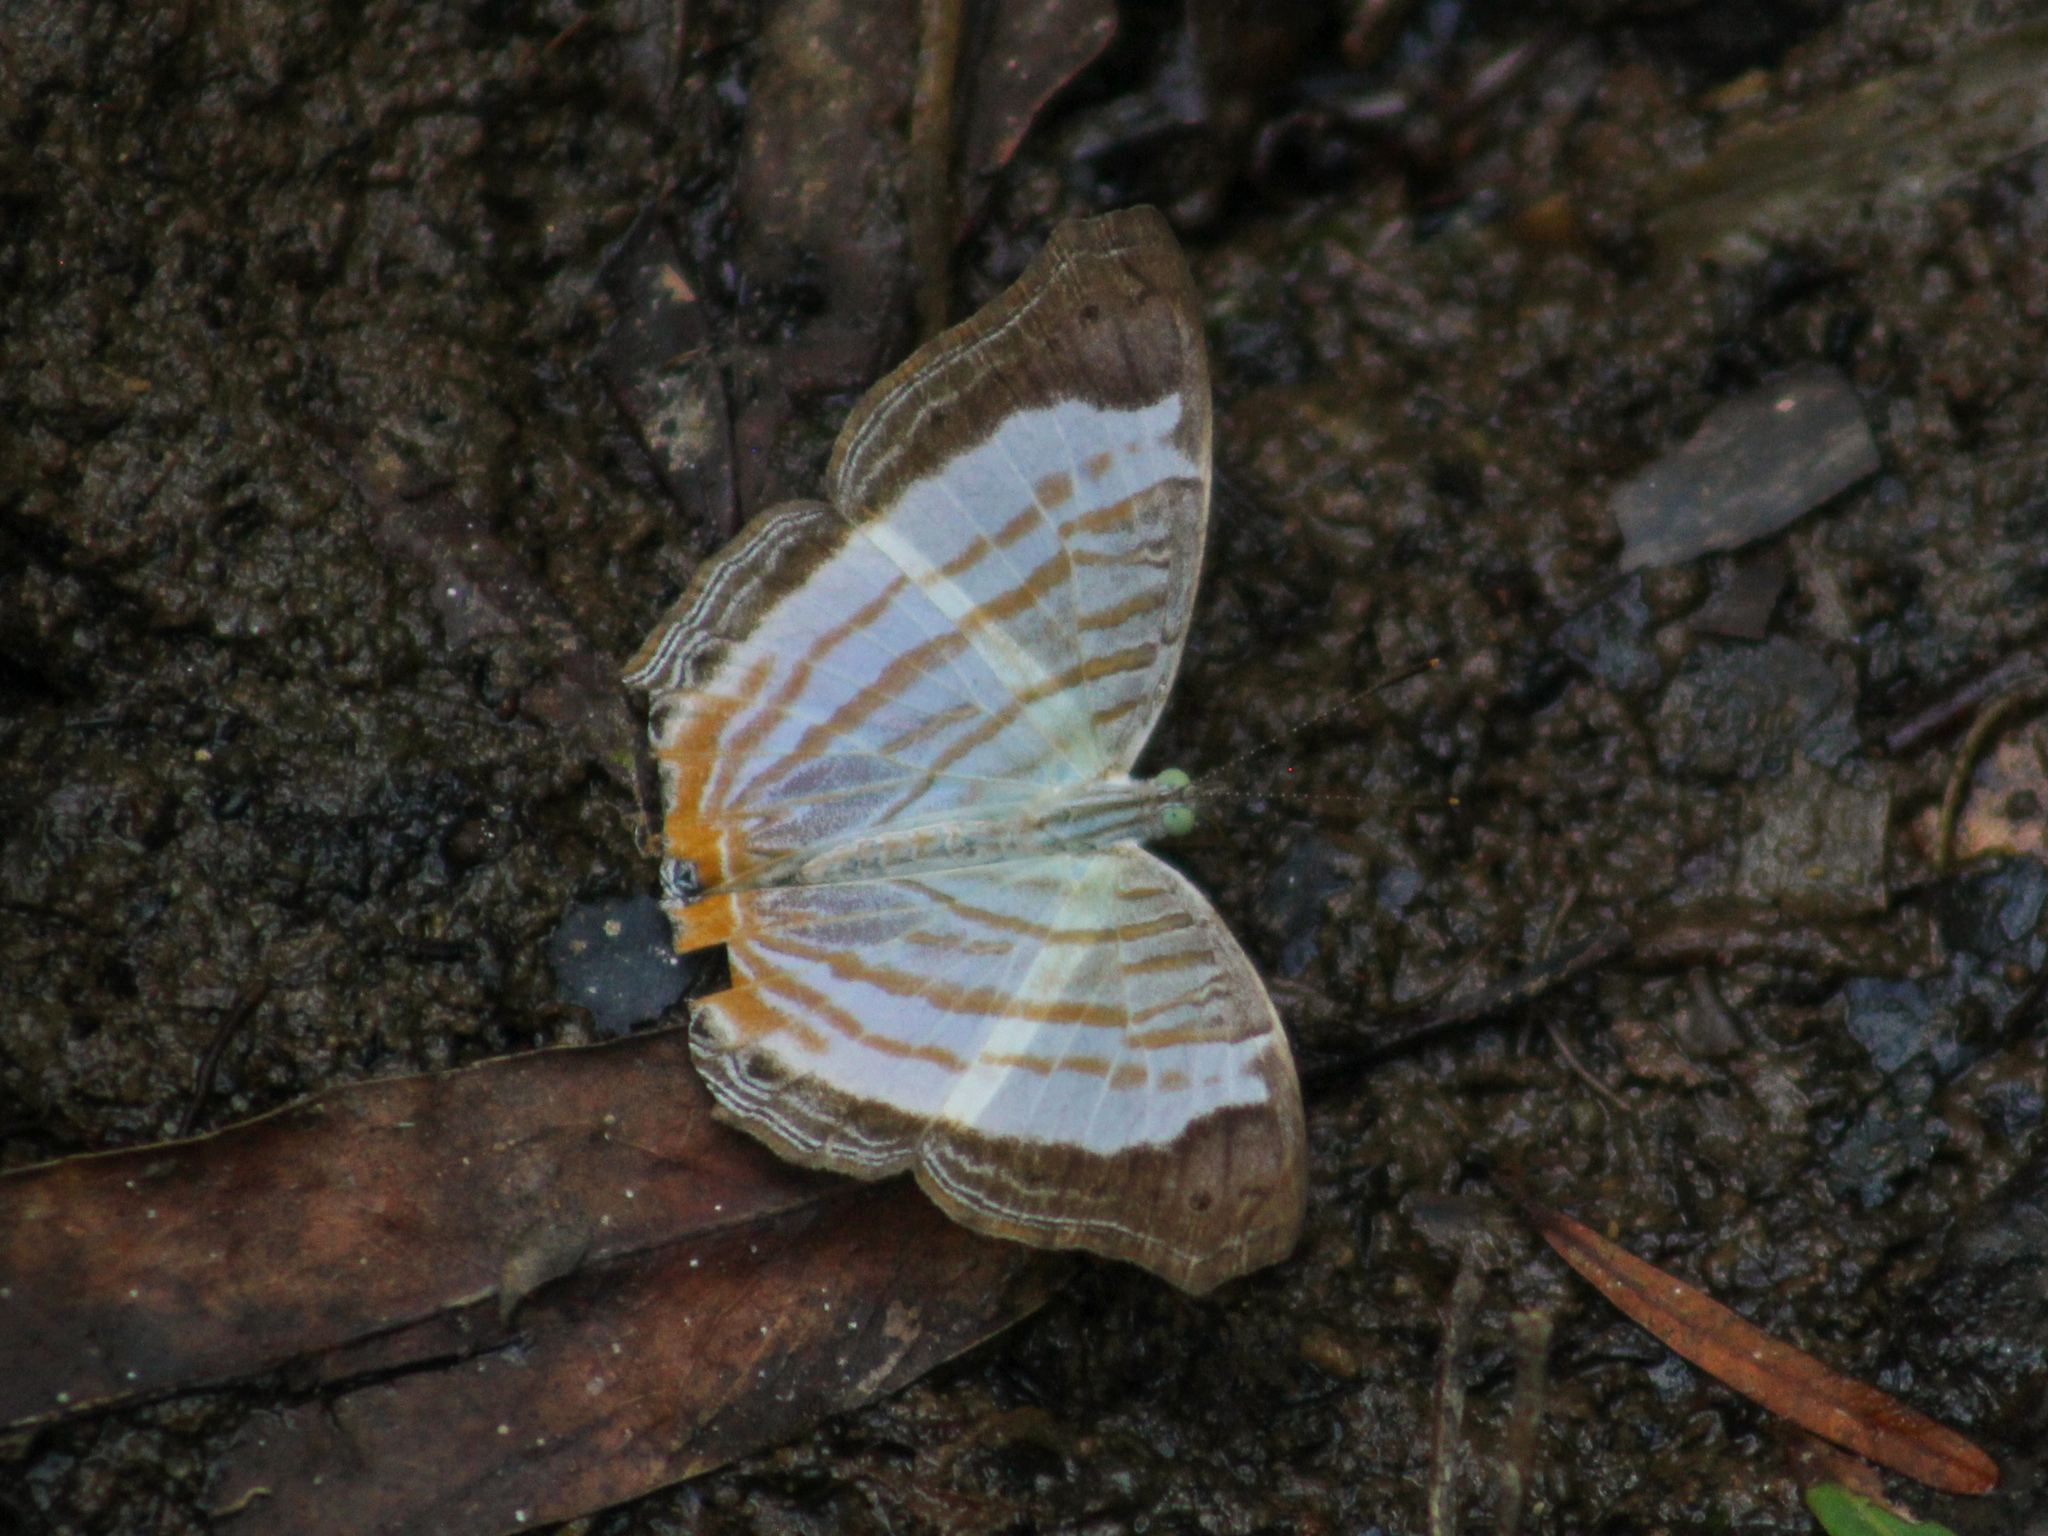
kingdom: Animalia
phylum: Arthropoda
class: Insecta
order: Lepidoptera
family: Nymphalidae
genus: Cyrestis
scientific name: Cyrestis themire
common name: Little mapwing
